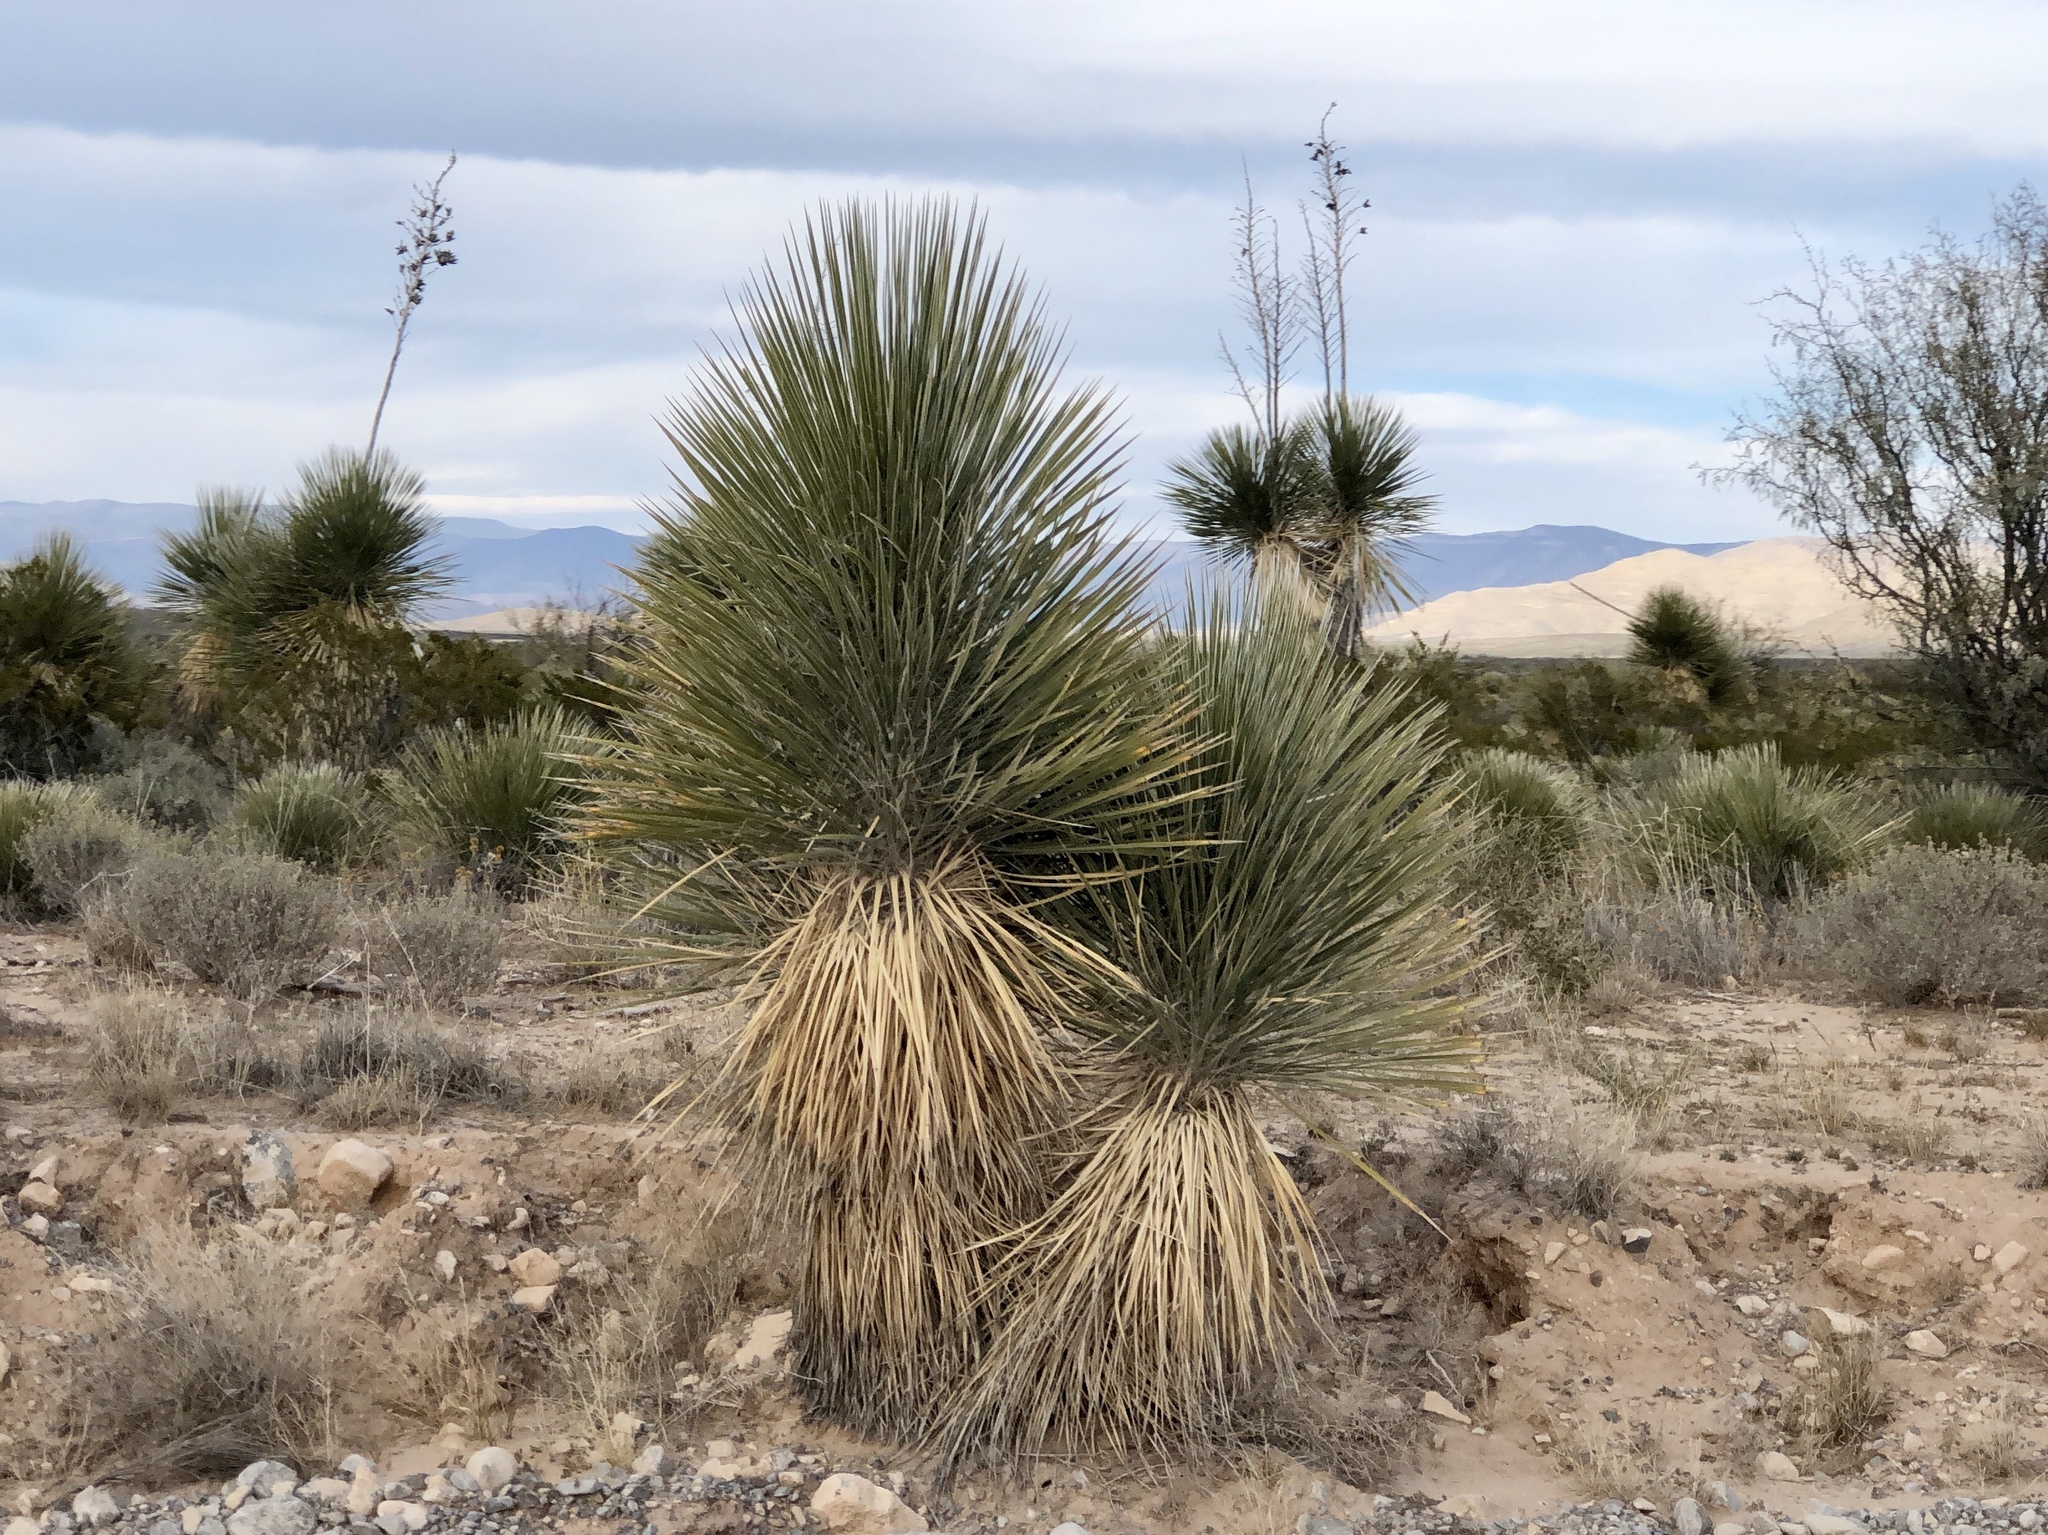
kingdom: Plantae
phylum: Tracheophyta
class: Liliopsida
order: Asparagales
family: Asparagaceae
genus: Yucca
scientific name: Yucca elata
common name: Palmella
